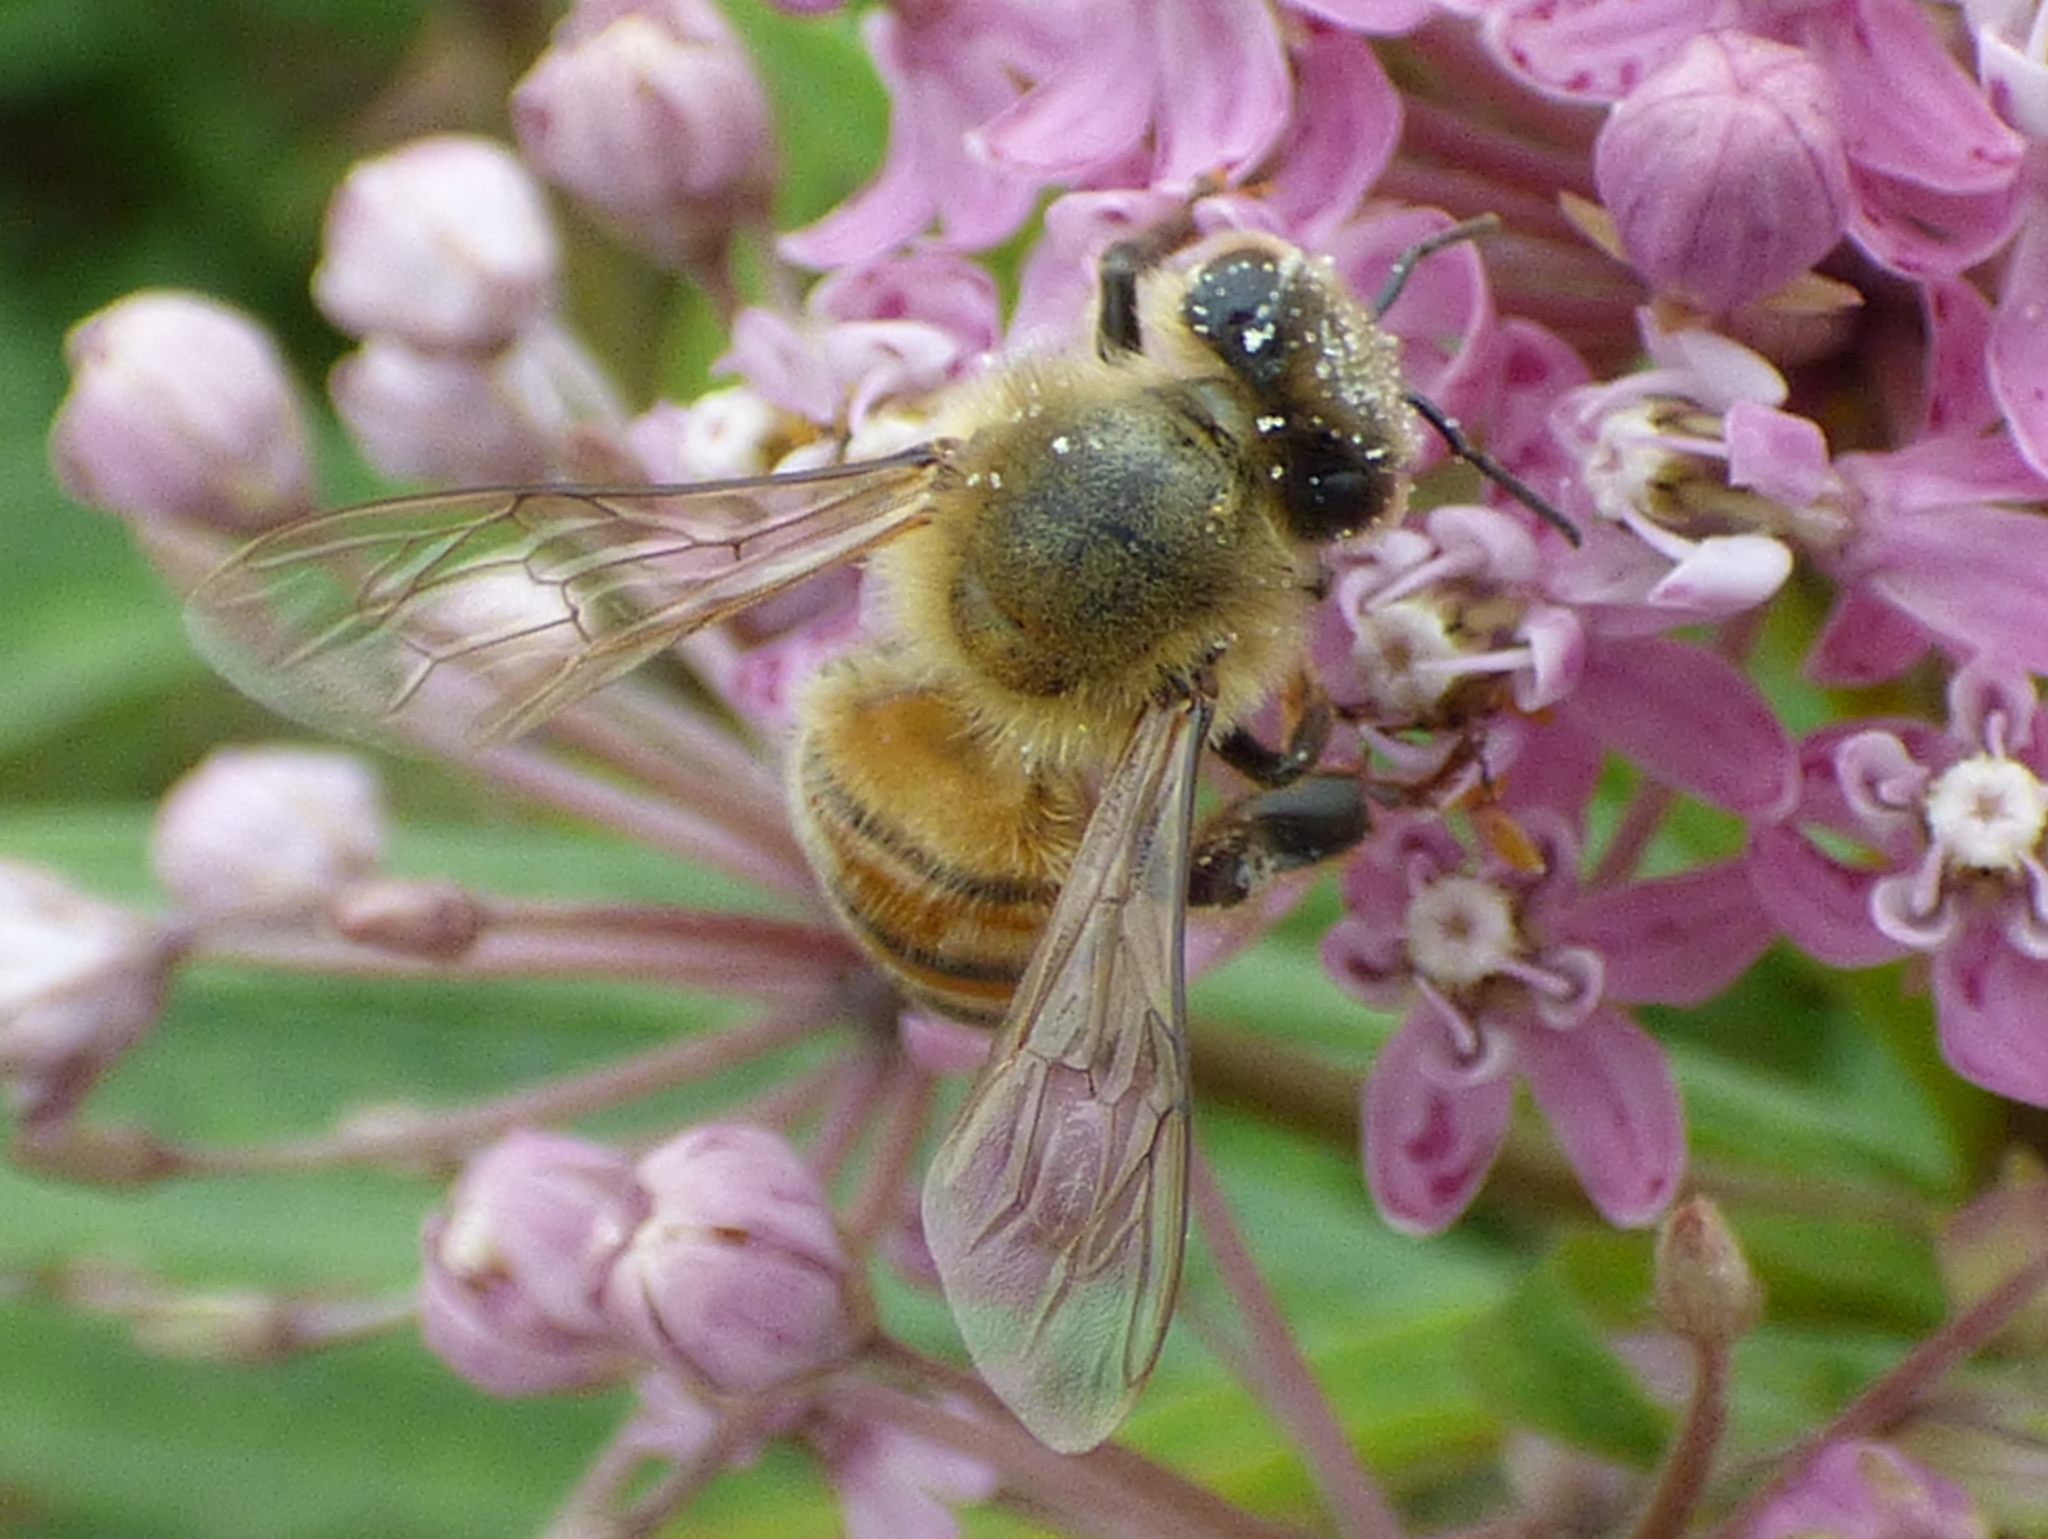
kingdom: Animalia
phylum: Arthropoda
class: Insecta
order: Hymenoptera
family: Apidae
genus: Apis
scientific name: Apis mellifera
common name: Honey bee
